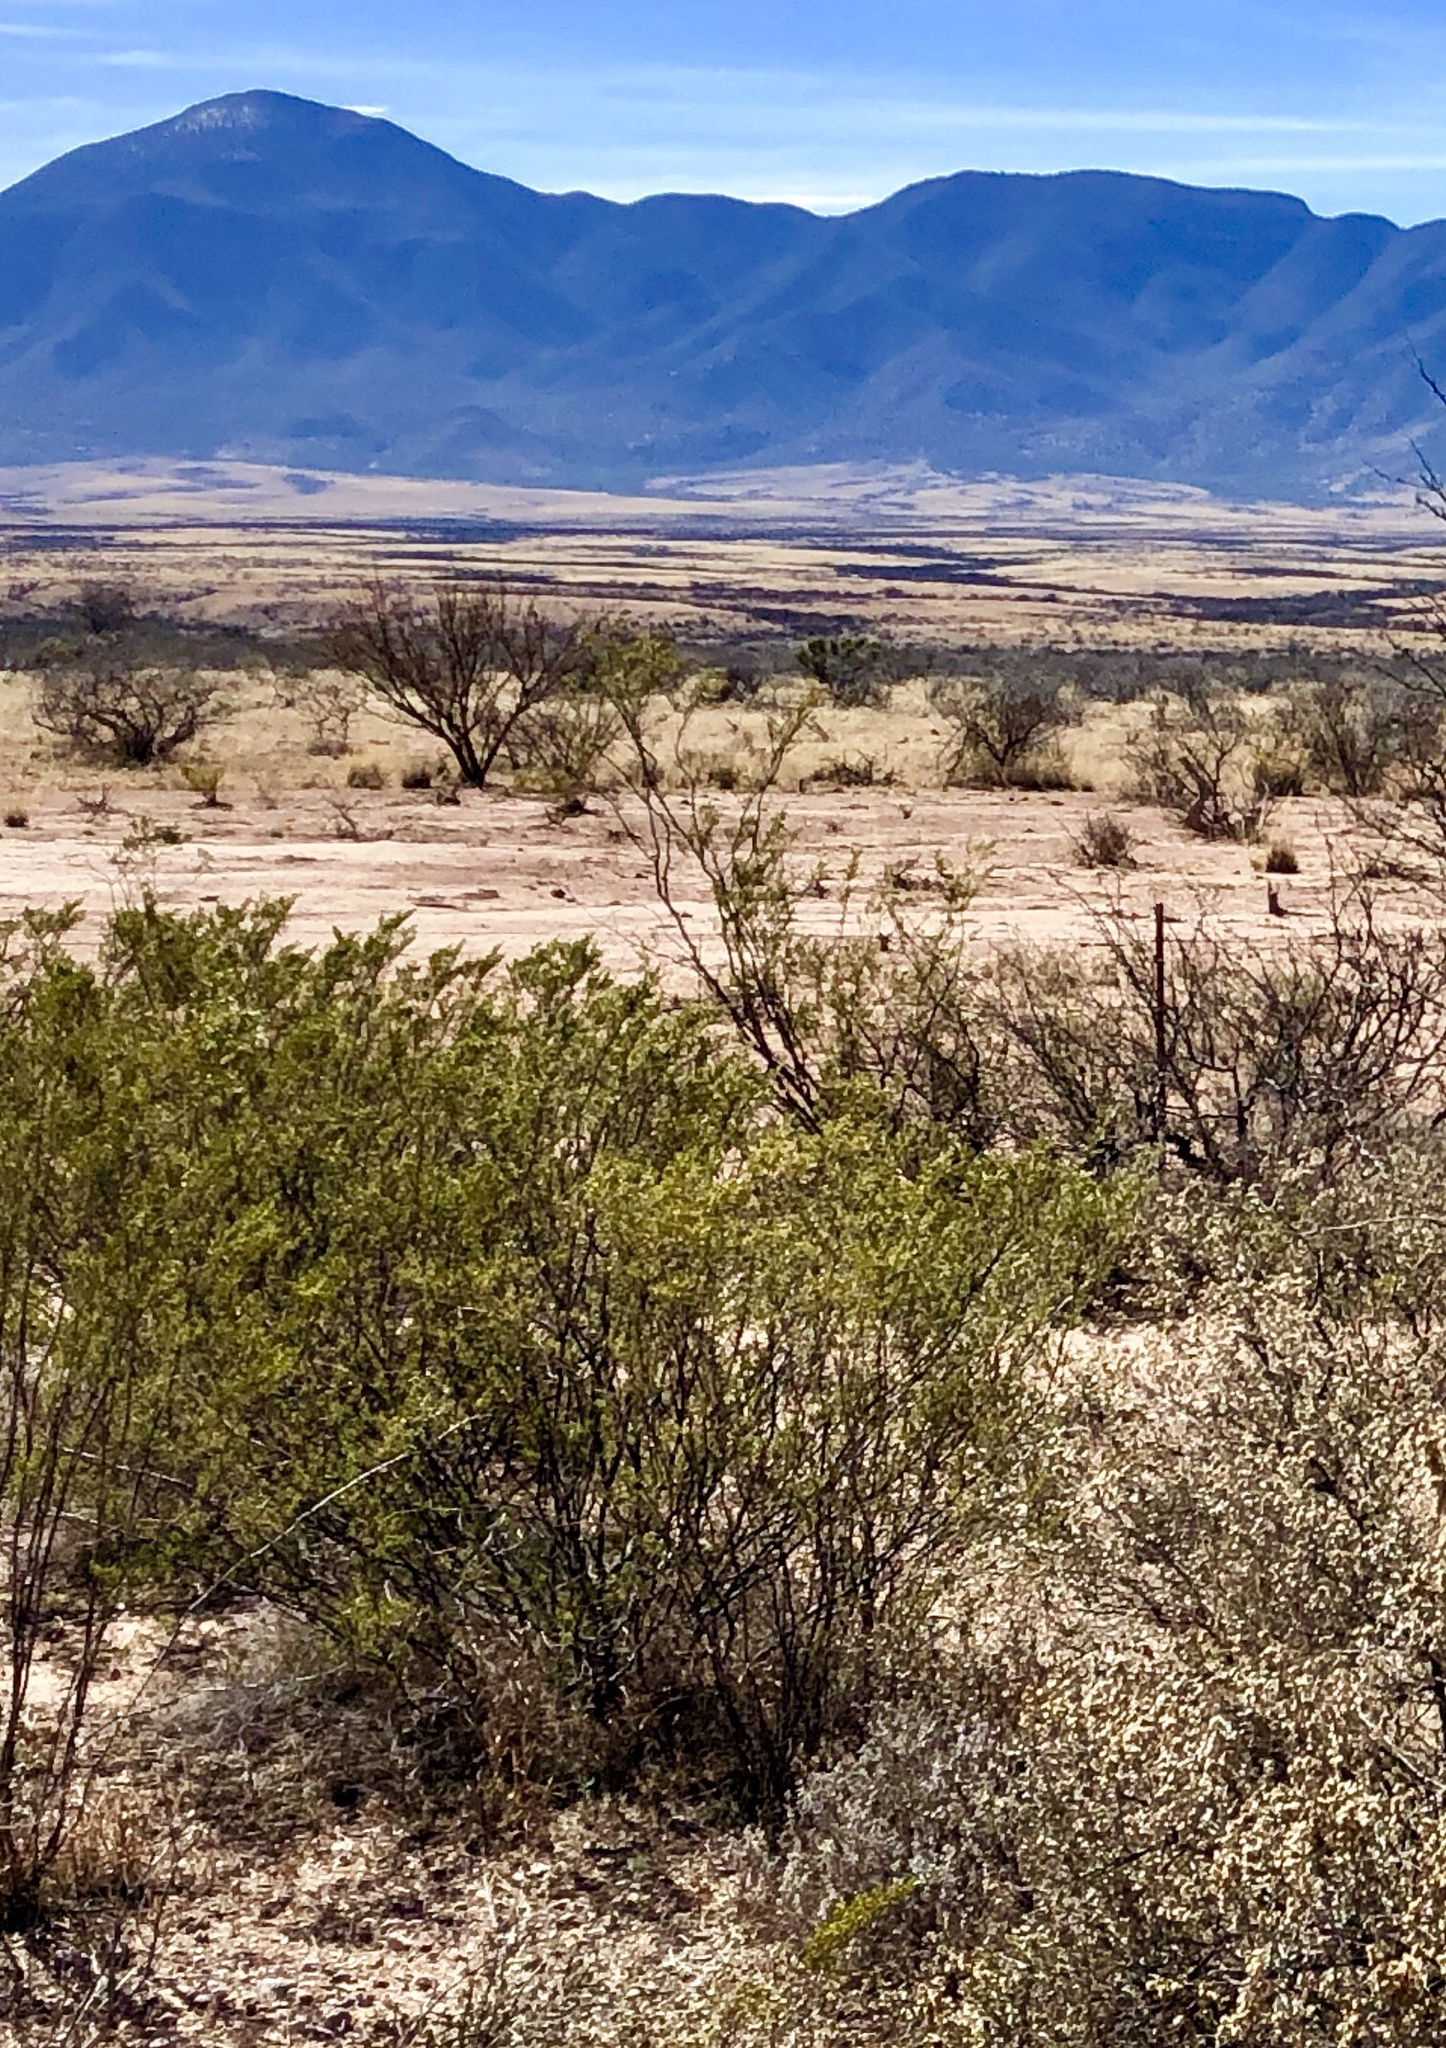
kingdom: Plantae
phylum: Tracheophyta
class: Magnoliopsida
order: Zygophyllales
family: Zygophyllaceae
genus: Larrea
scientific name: Larrea tridentata
